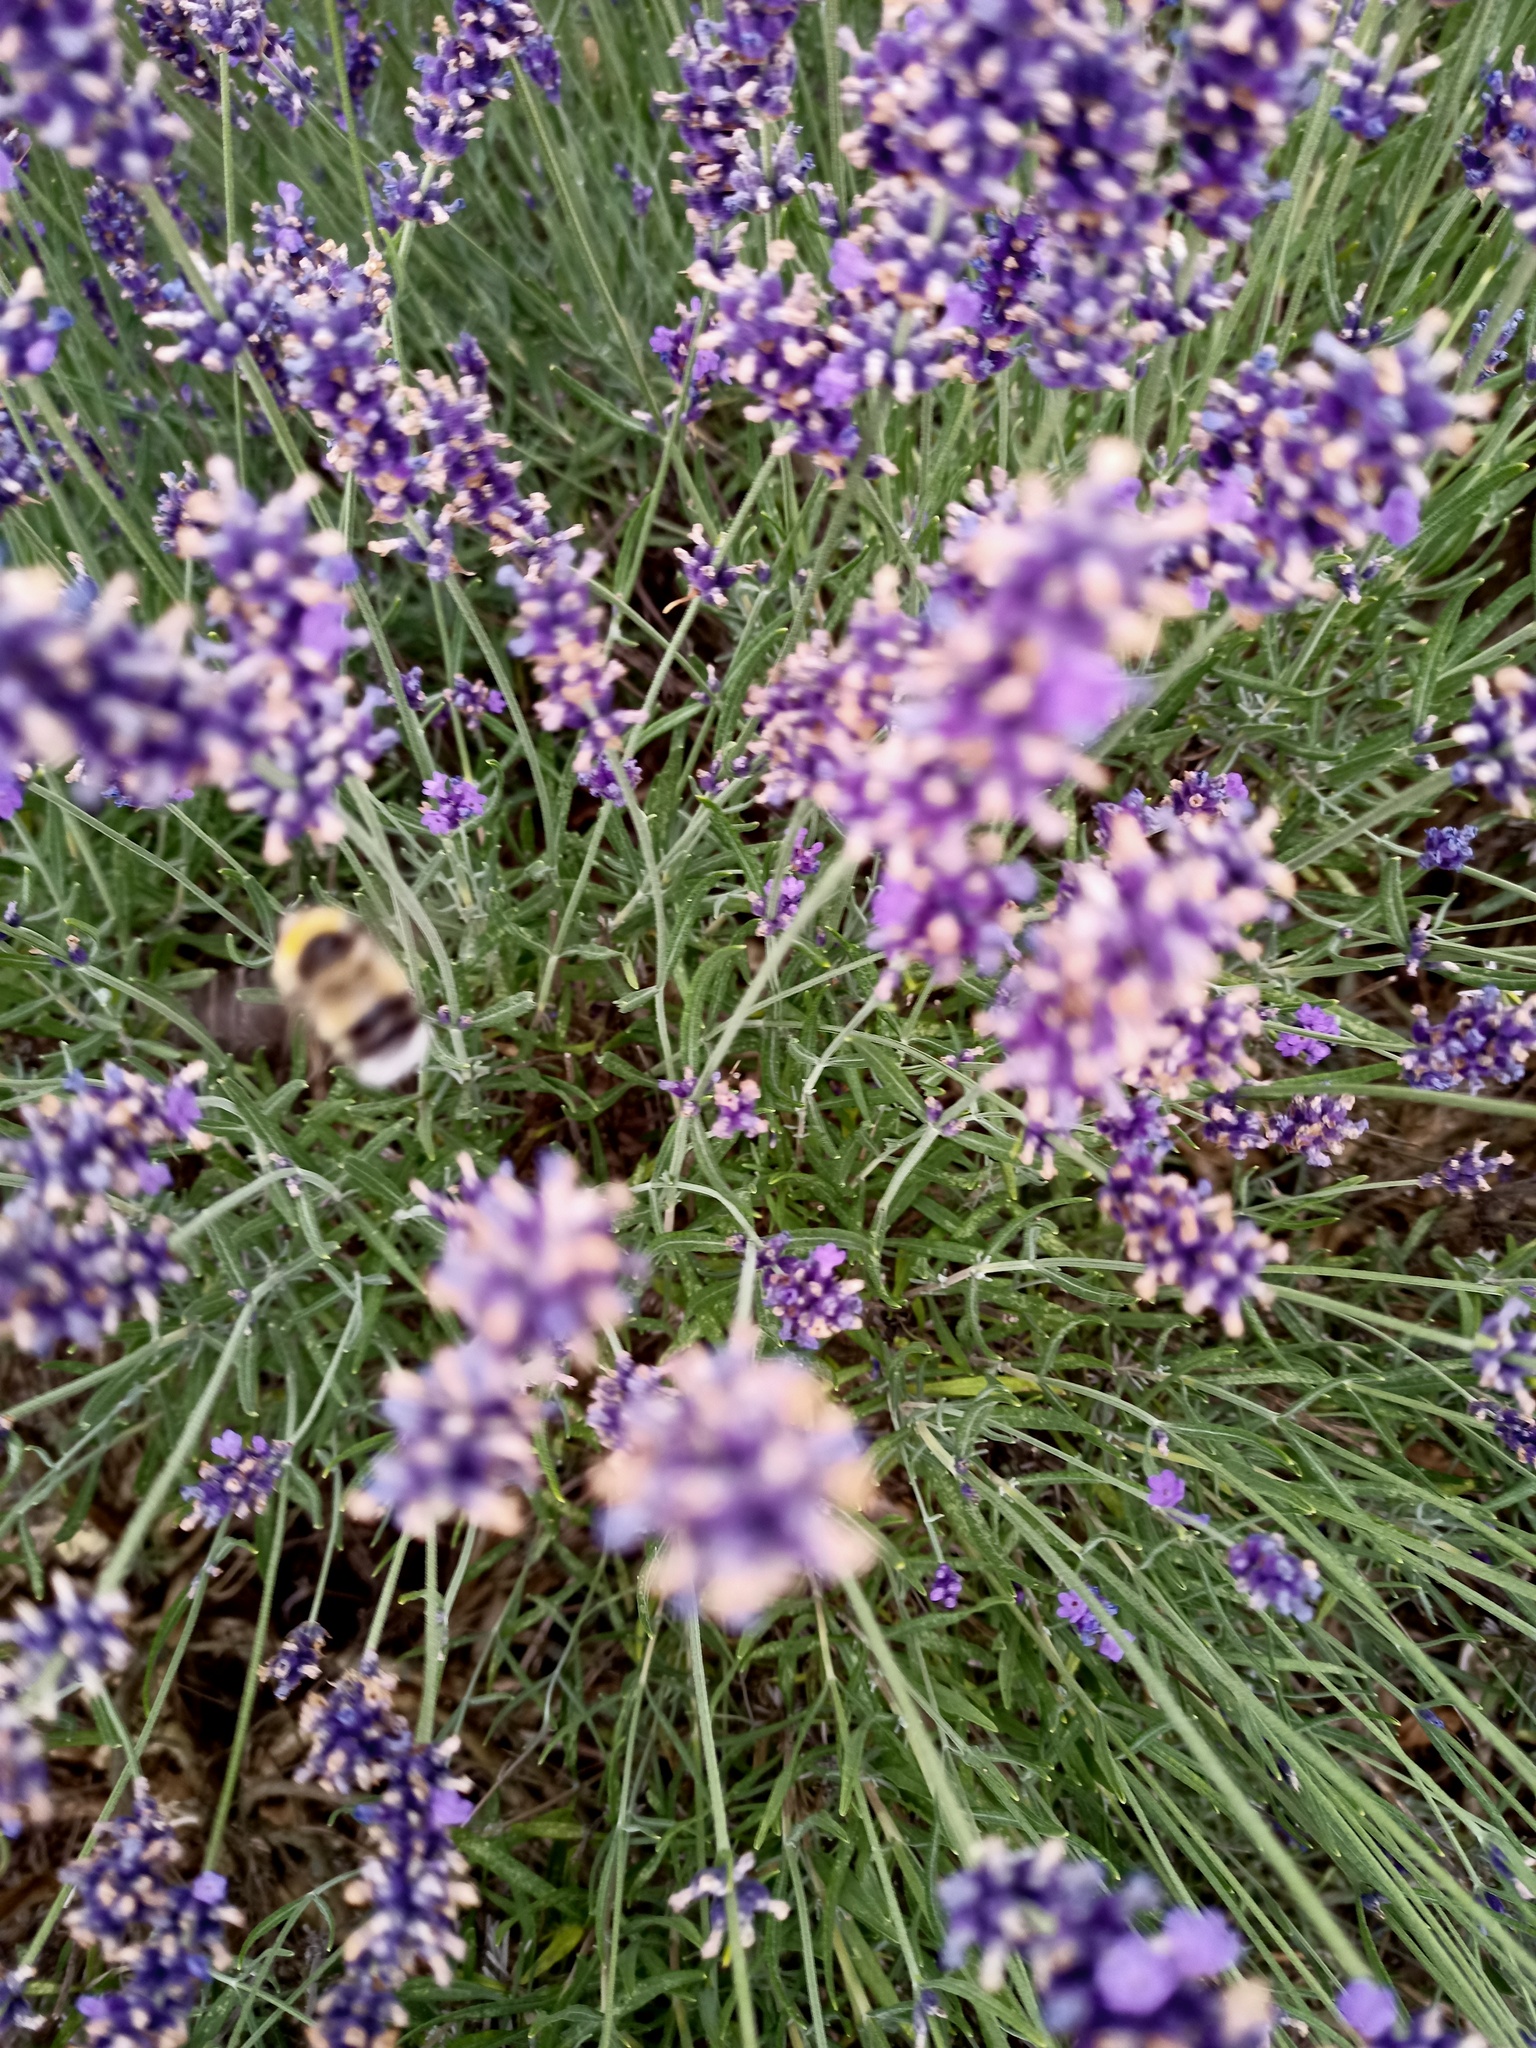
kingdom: Animalia
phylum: Arthropoda
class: Insecta
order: Hymenoptera
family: Apidae
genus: Bombus
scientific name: Bombus lucorum
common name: White-tailed bumblebee
